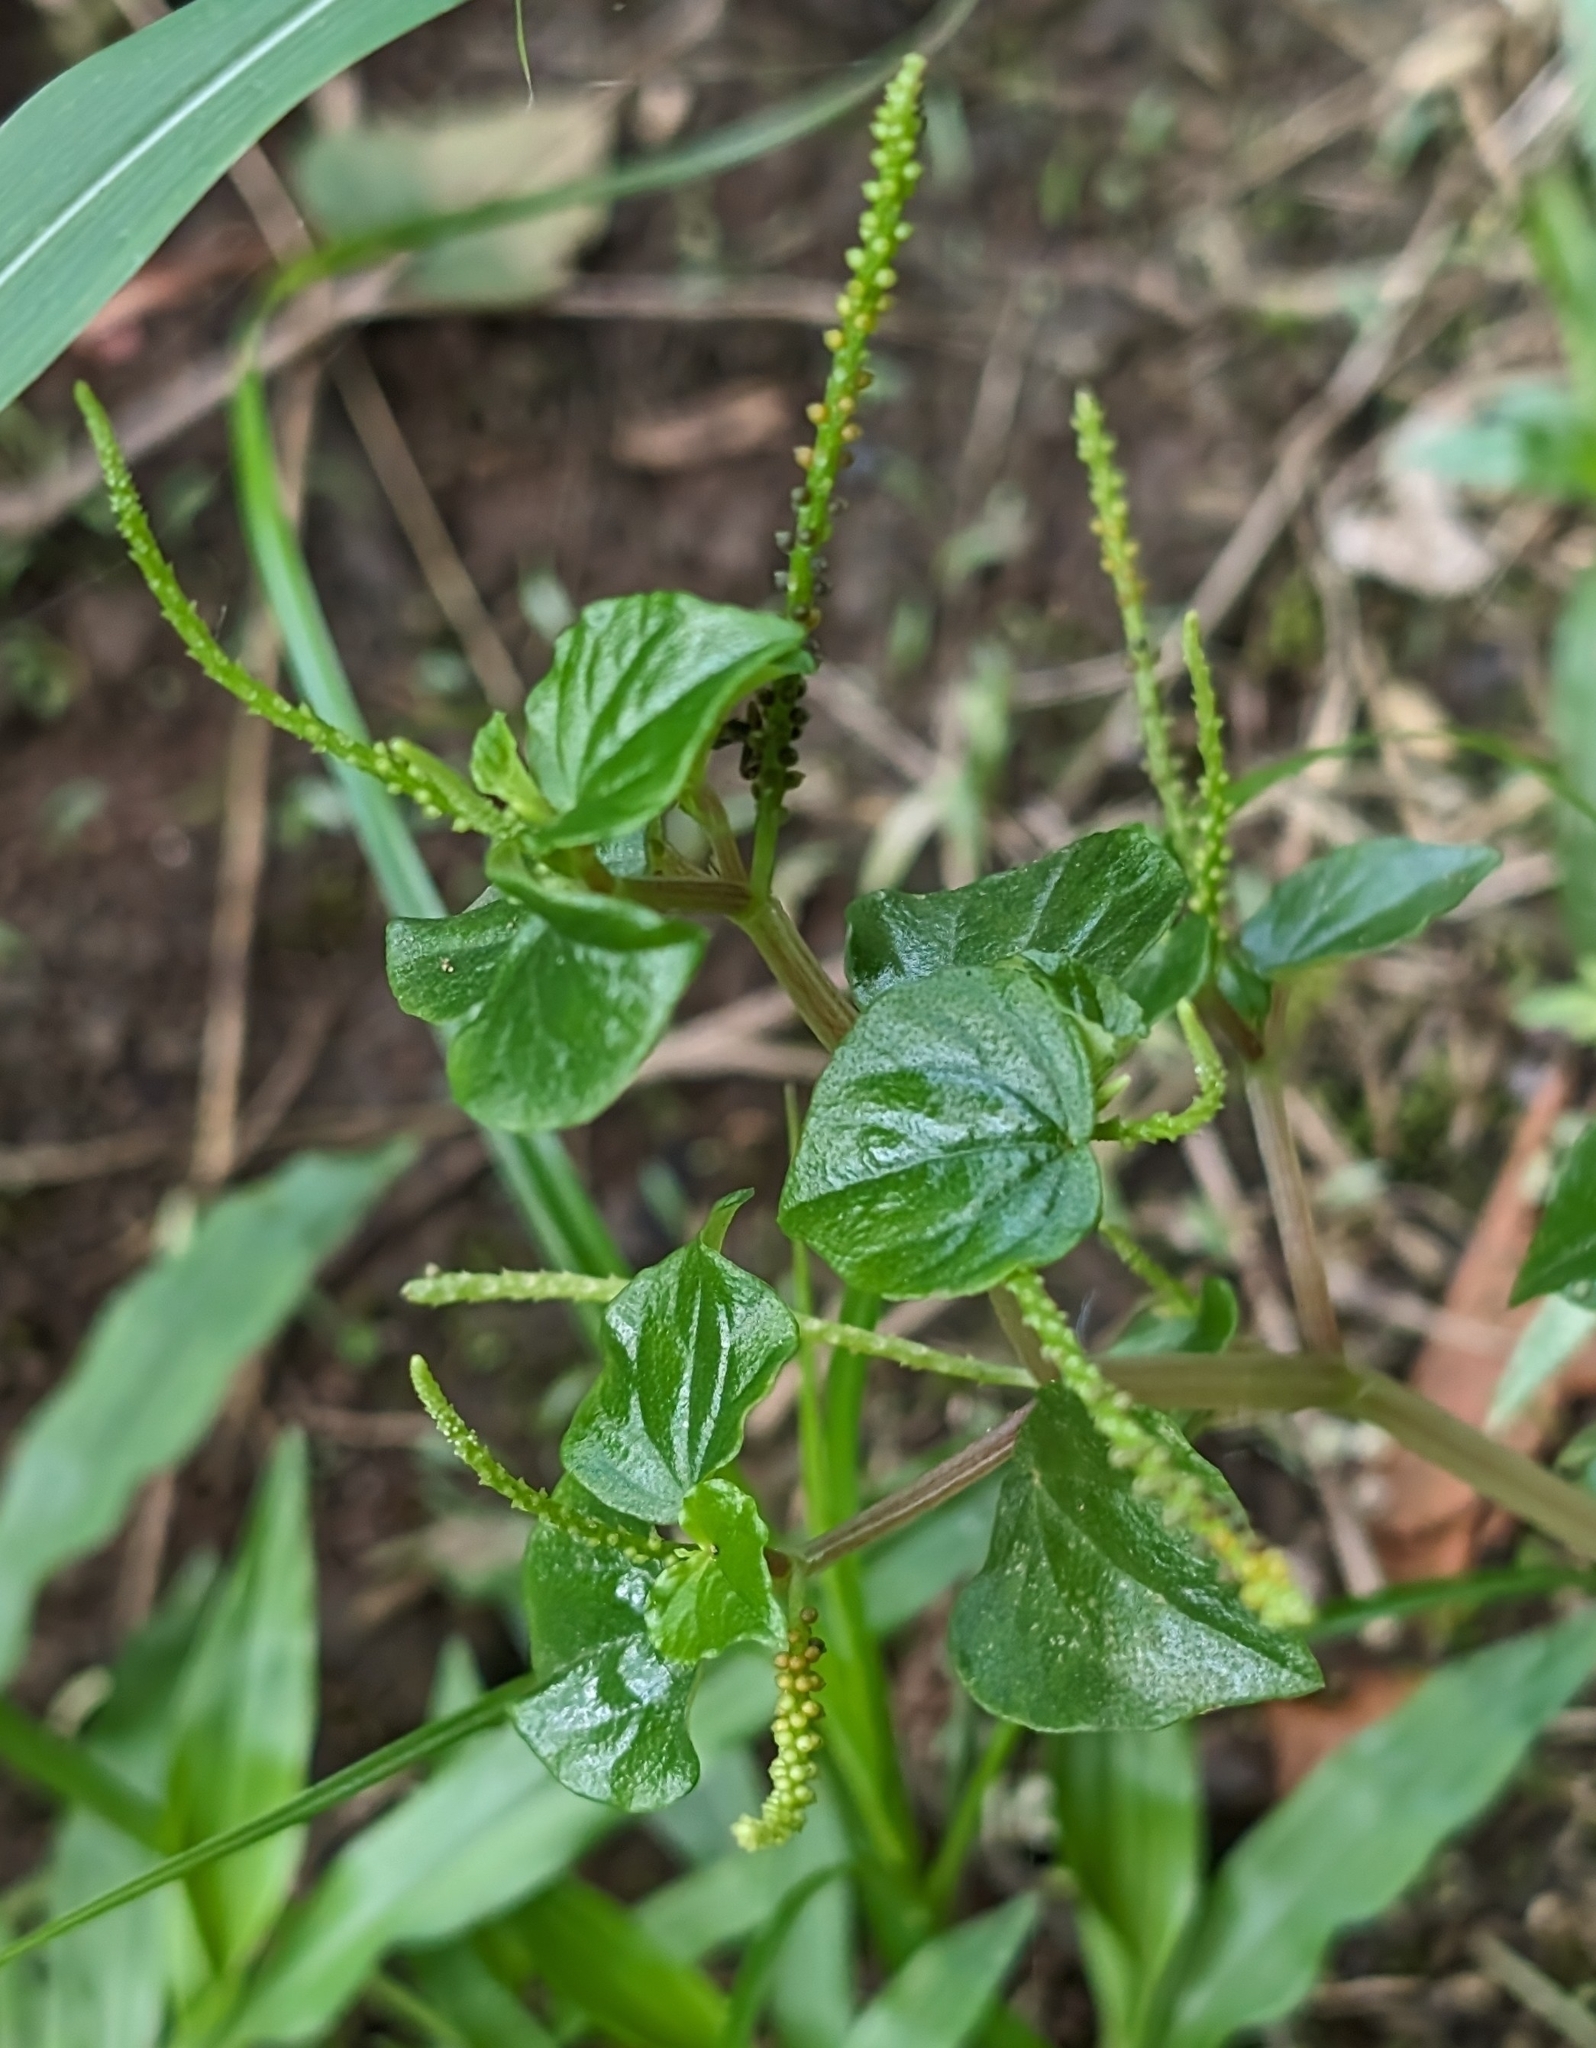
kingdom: Plantae
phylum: Tracheophyta
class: Magnoliopsida
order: Piperales
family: Piperaceae
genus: Peperomia
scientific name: Peperomia pellucida
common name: Man to man
